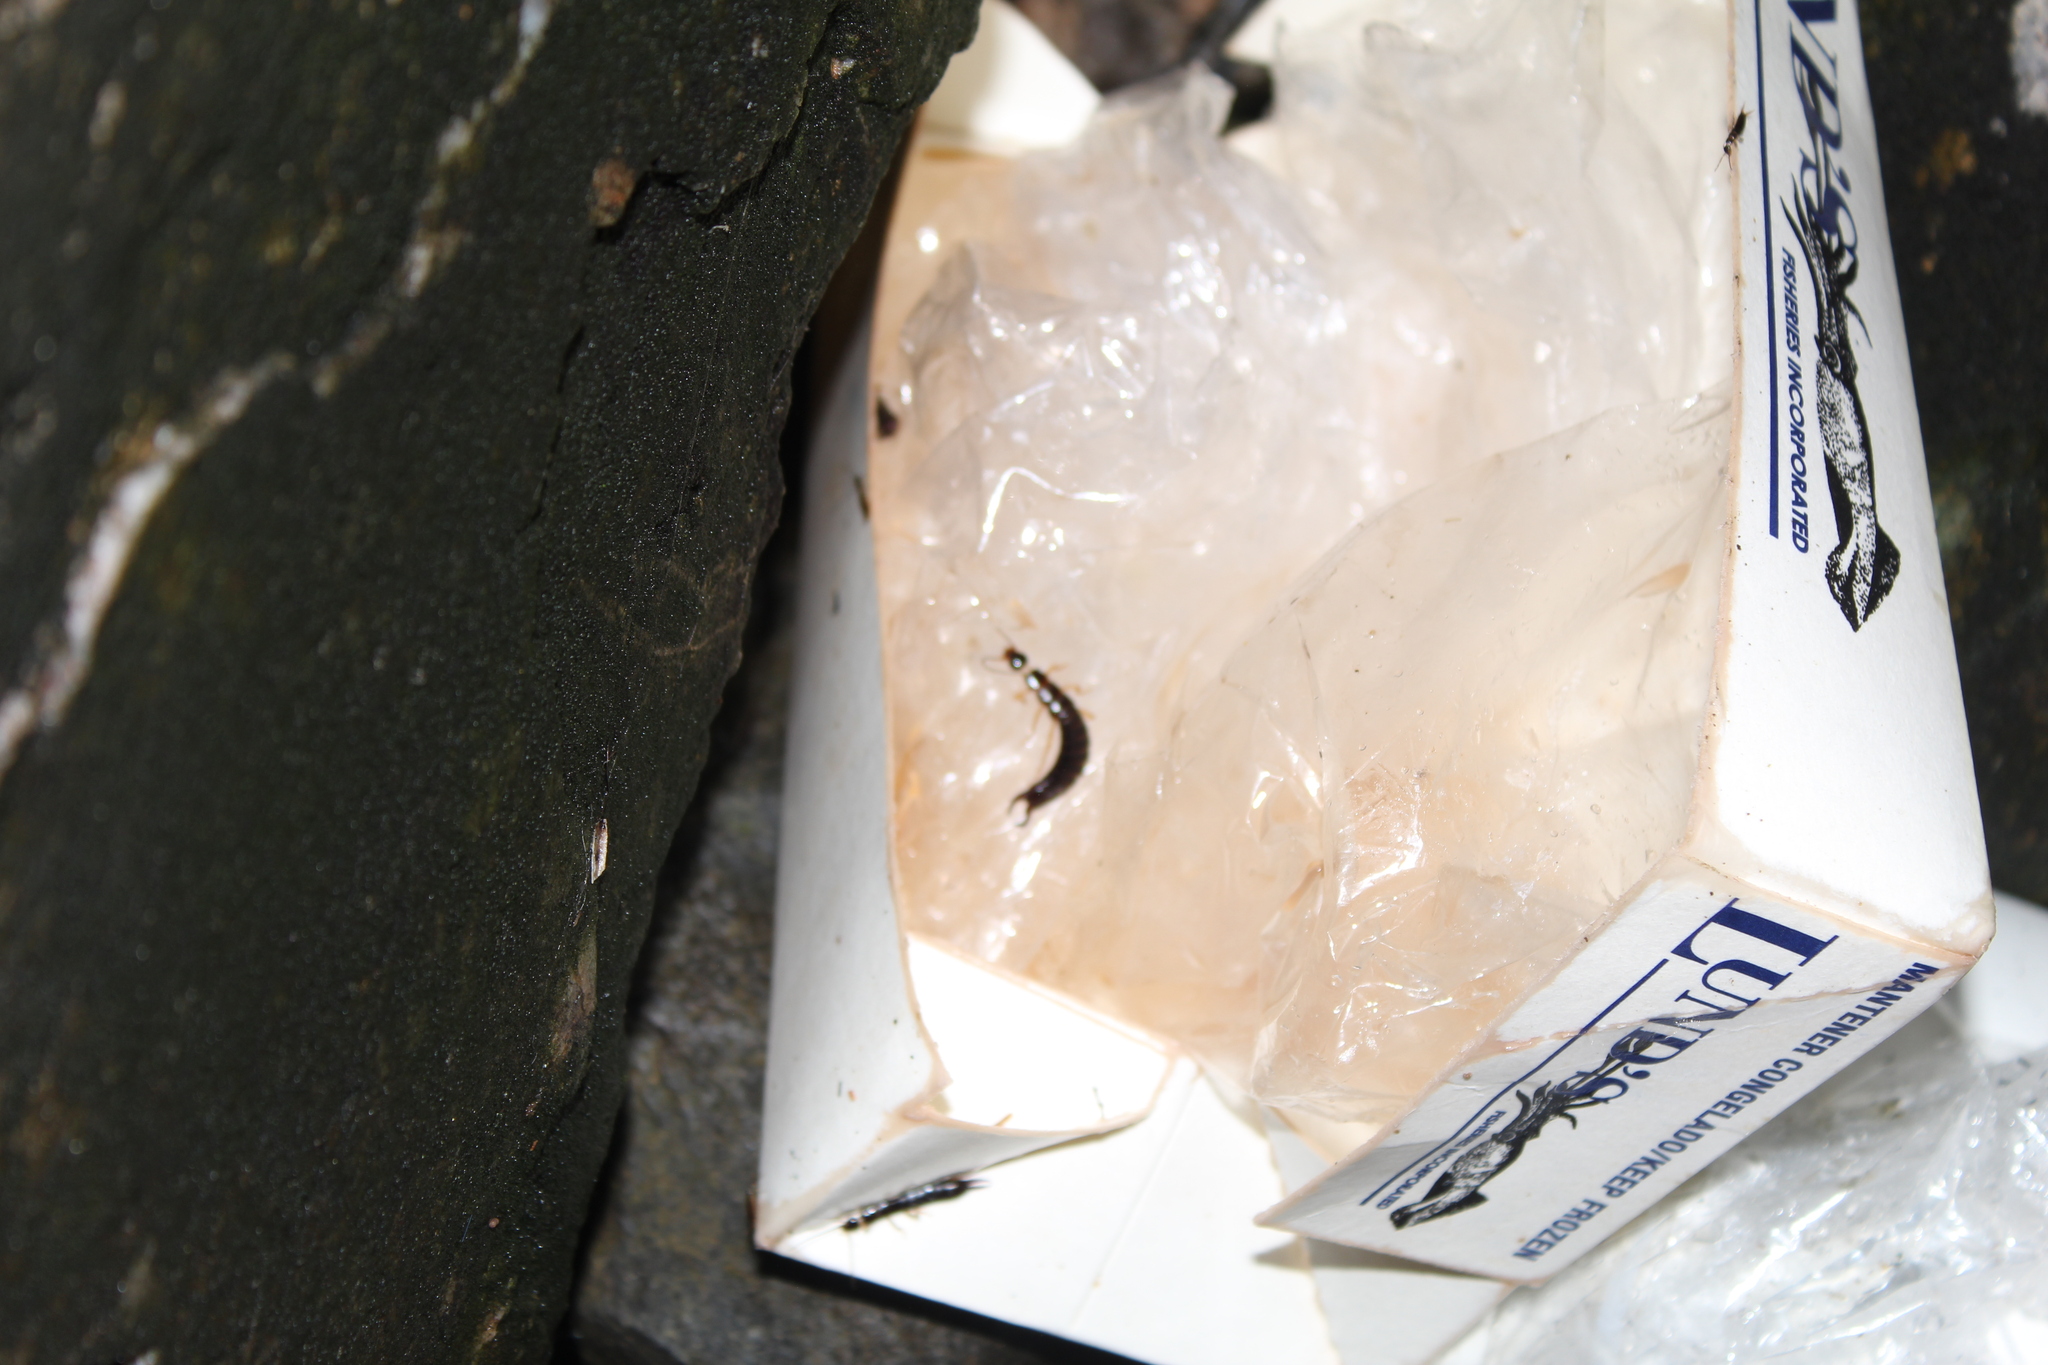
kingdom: Animalia
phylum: Arthropoda
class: Insecta
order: Dermaptera
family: Anisolabididae
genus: Anisolabis
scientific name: Anisolabis maritima
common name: Maritime earwig
